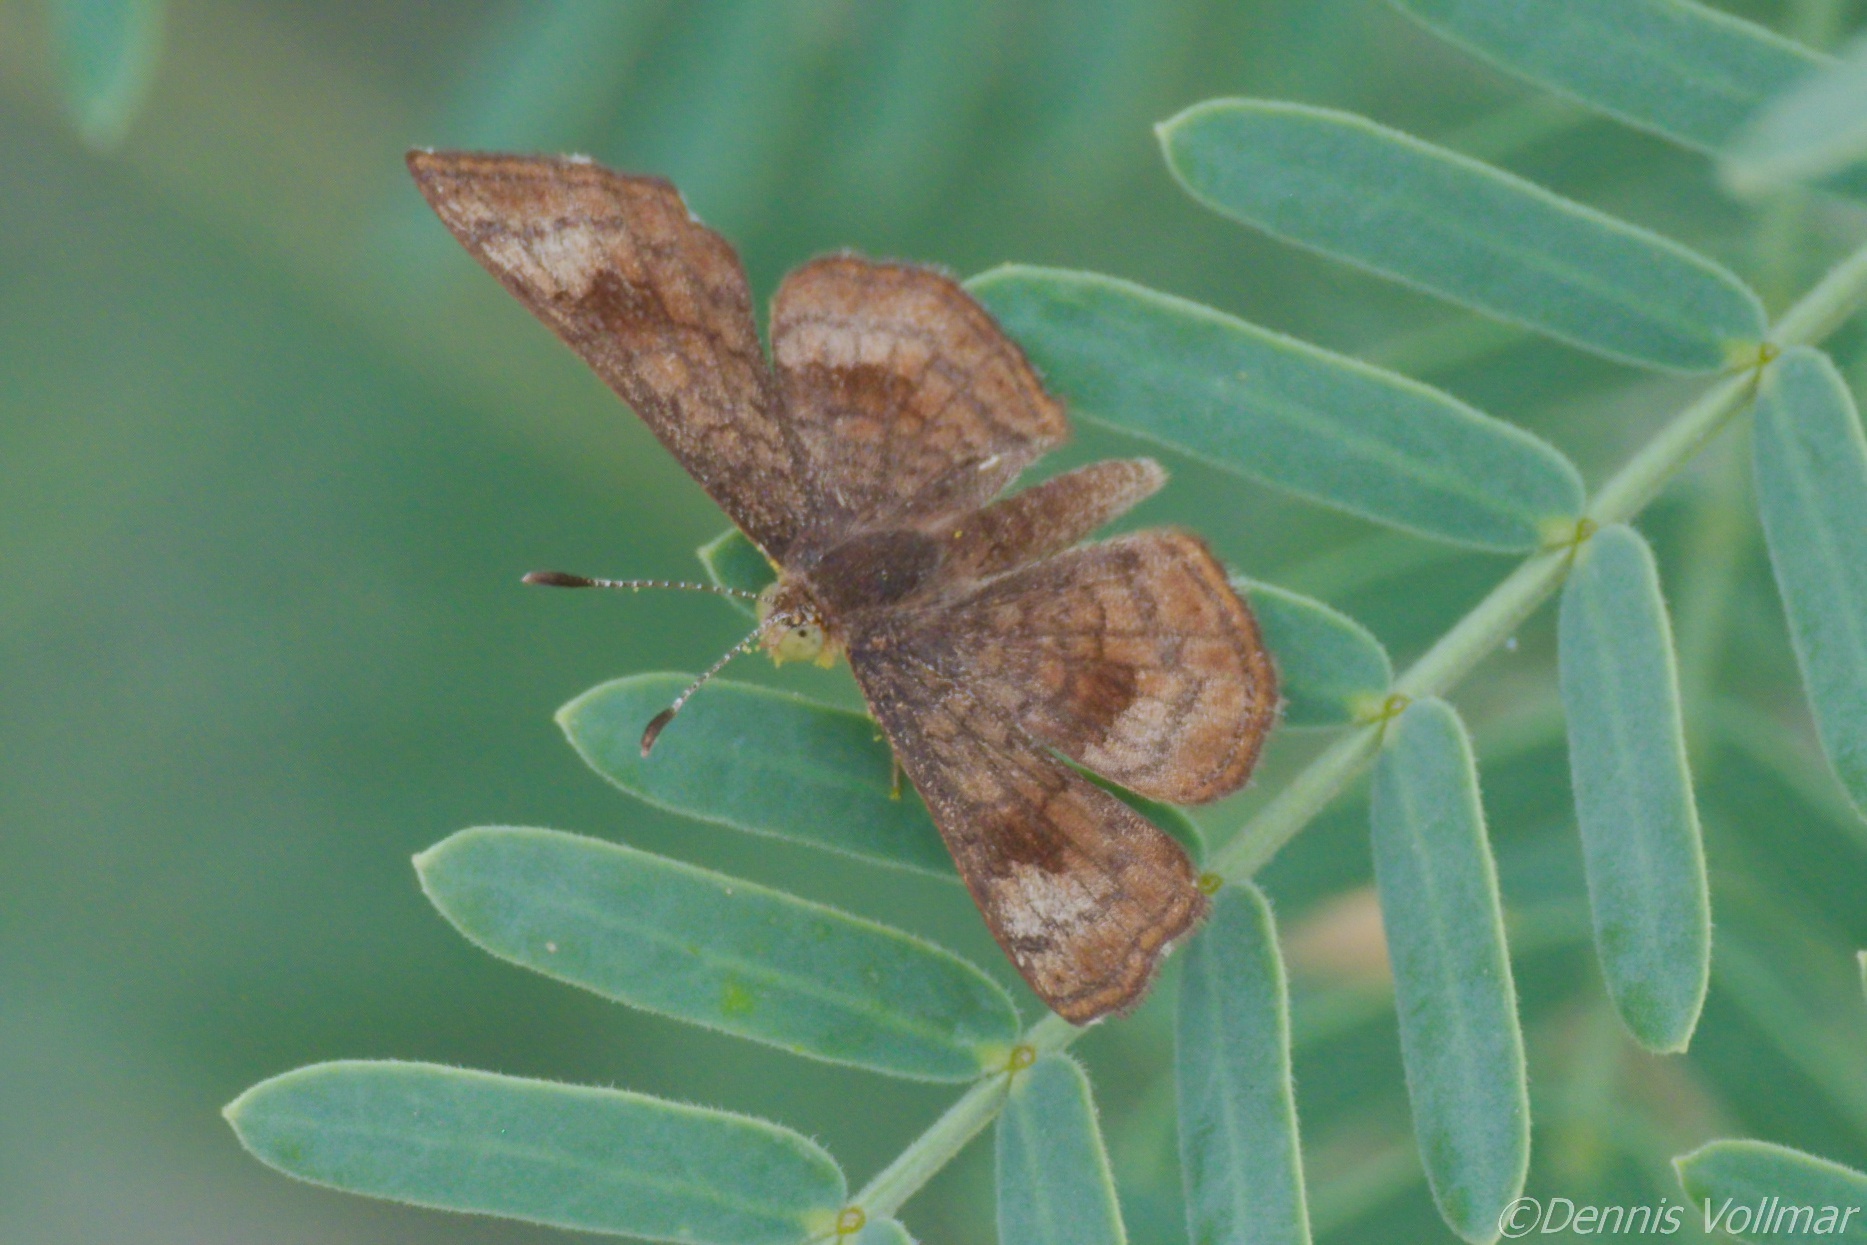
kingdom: Animalia
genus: Calephelis
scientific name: Calephelis nemesis
